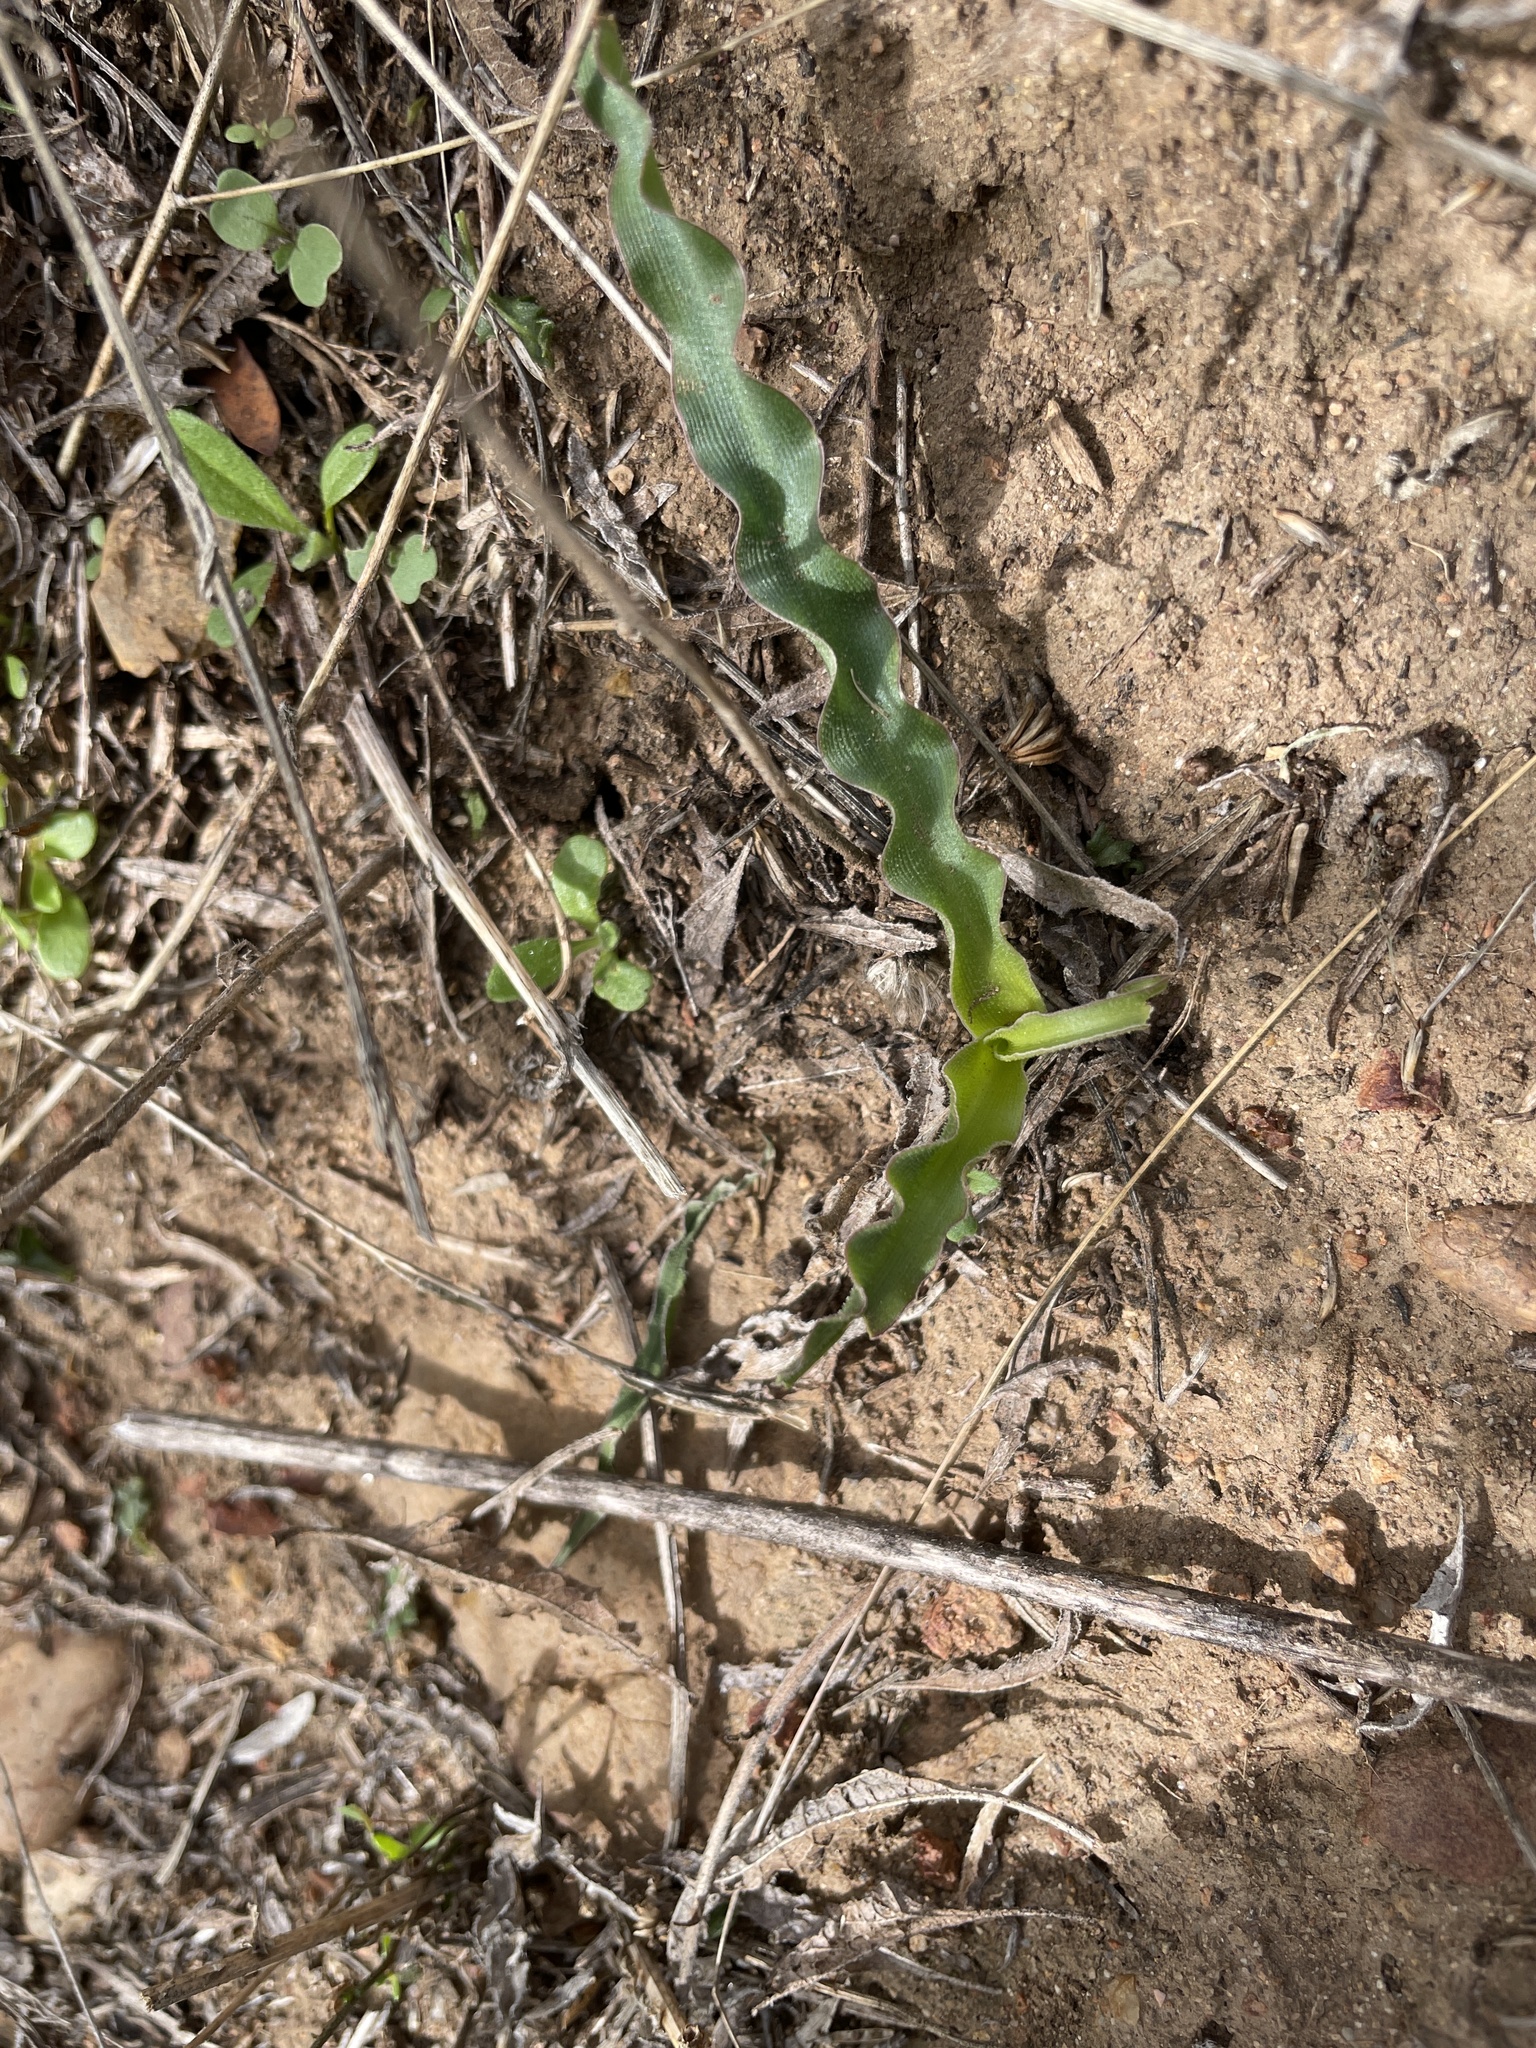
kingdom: Plantae
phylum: Tracheophyta
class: Liliopsida
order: Asparagales
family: Asparagaceae
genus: Hooveria
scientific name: Hooveria parviflora
